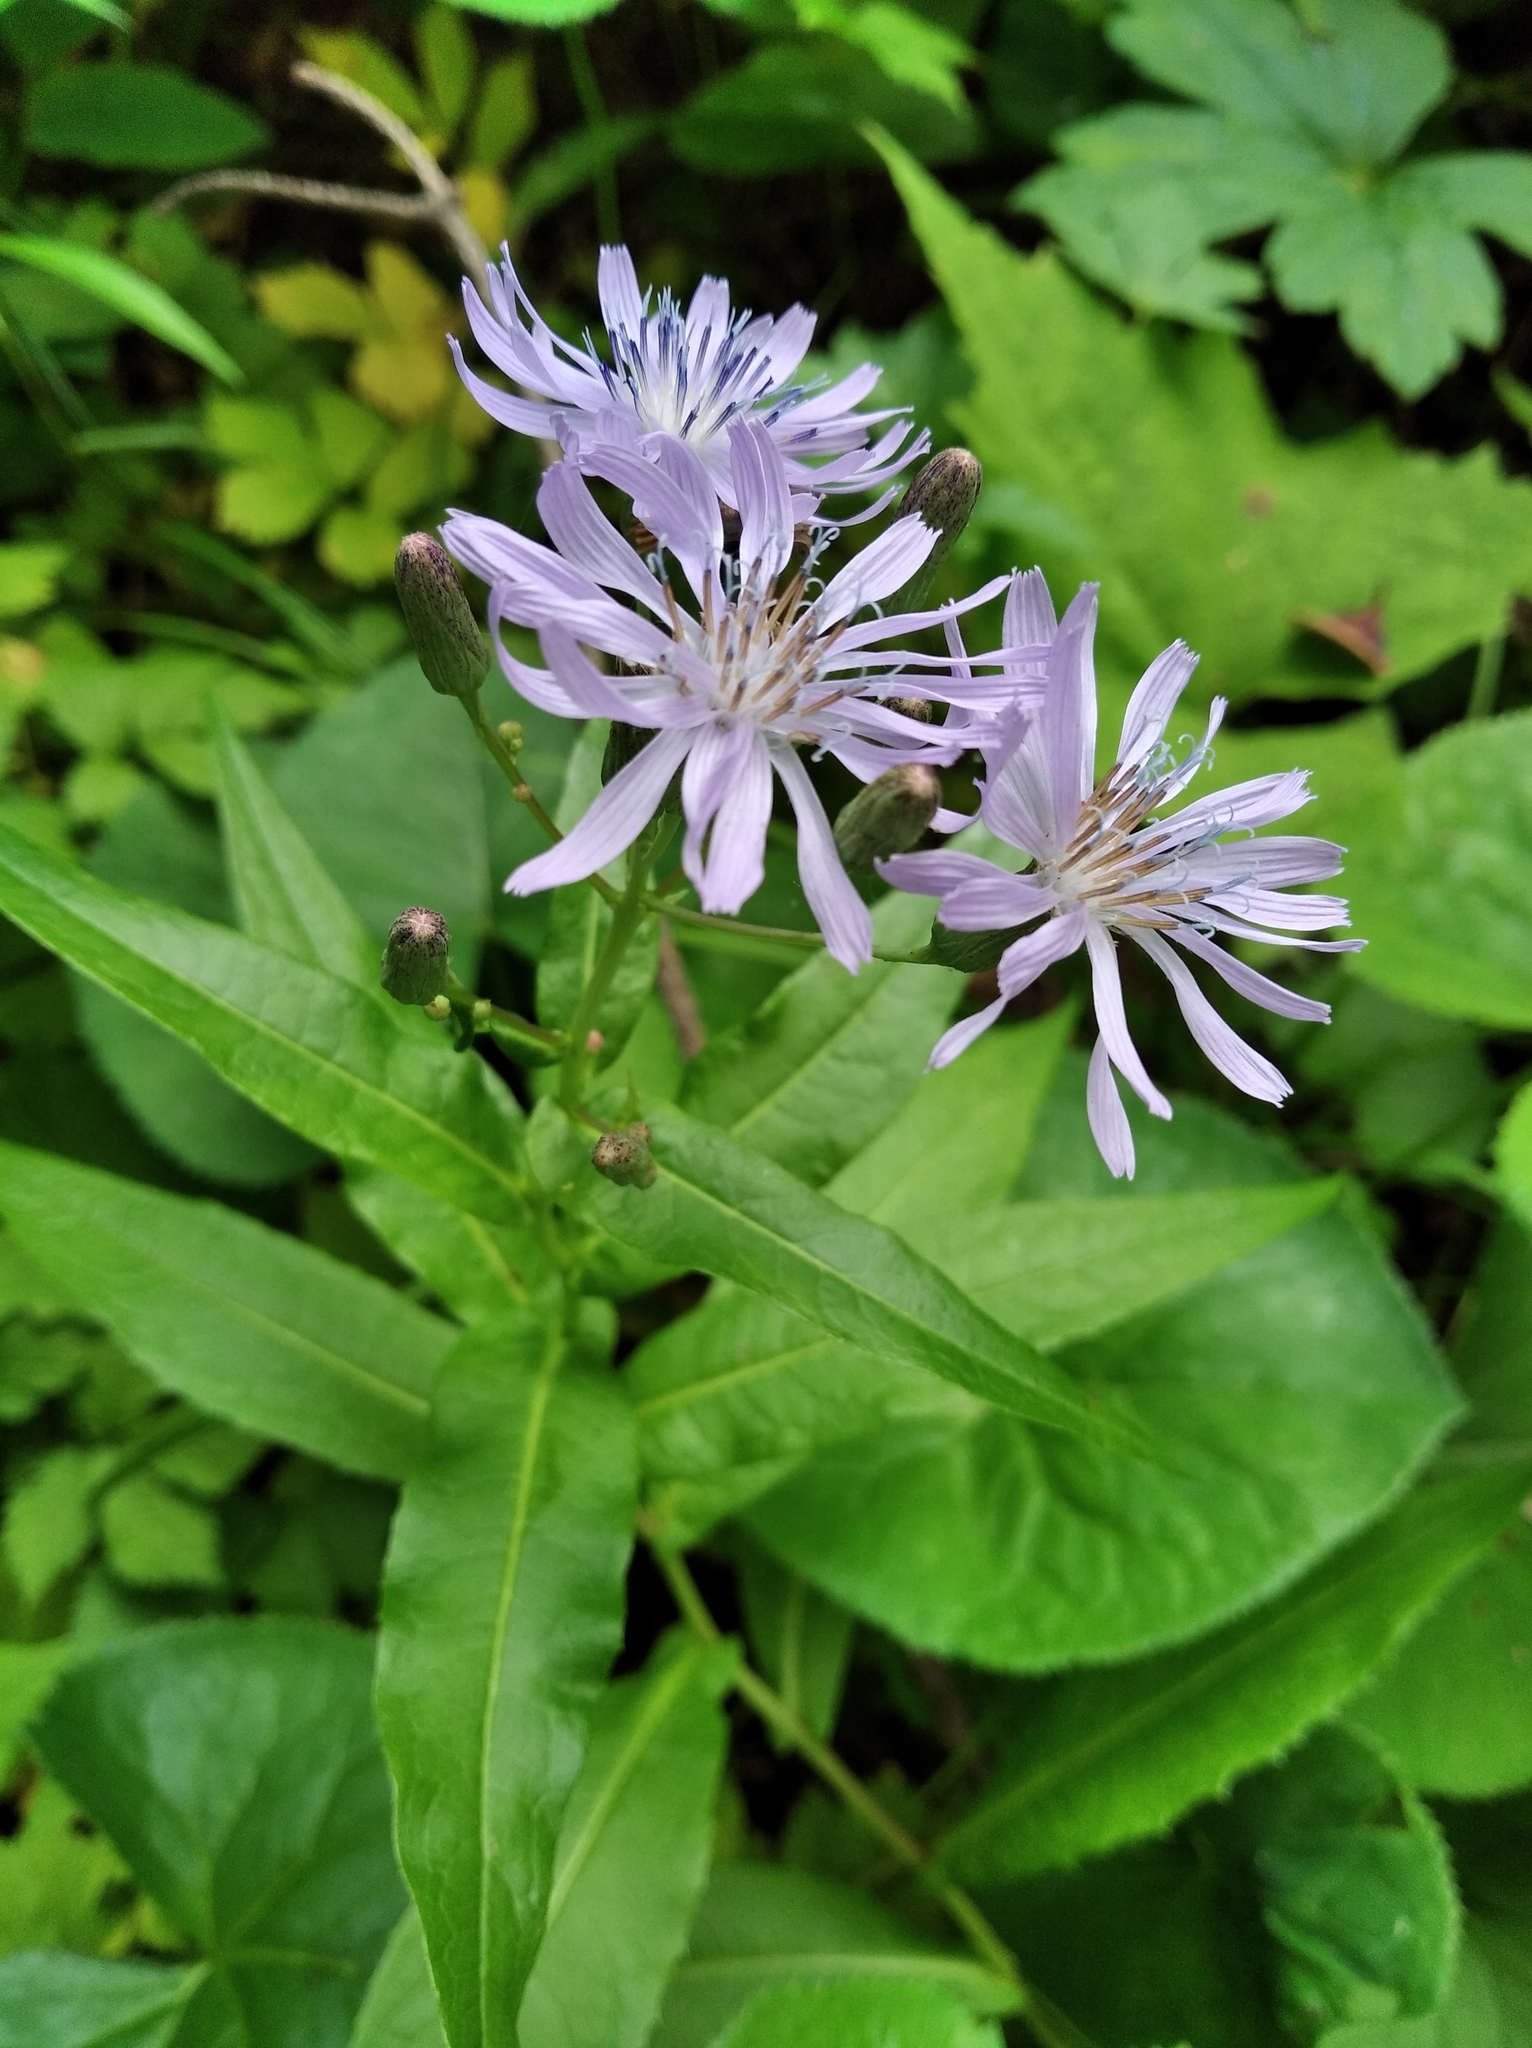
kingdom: Plantae
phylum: Tracheophyta
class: Magnoliopsida
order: Asterales
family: Asteraceae
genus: Lactuca
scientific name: Lactuca sibirica
